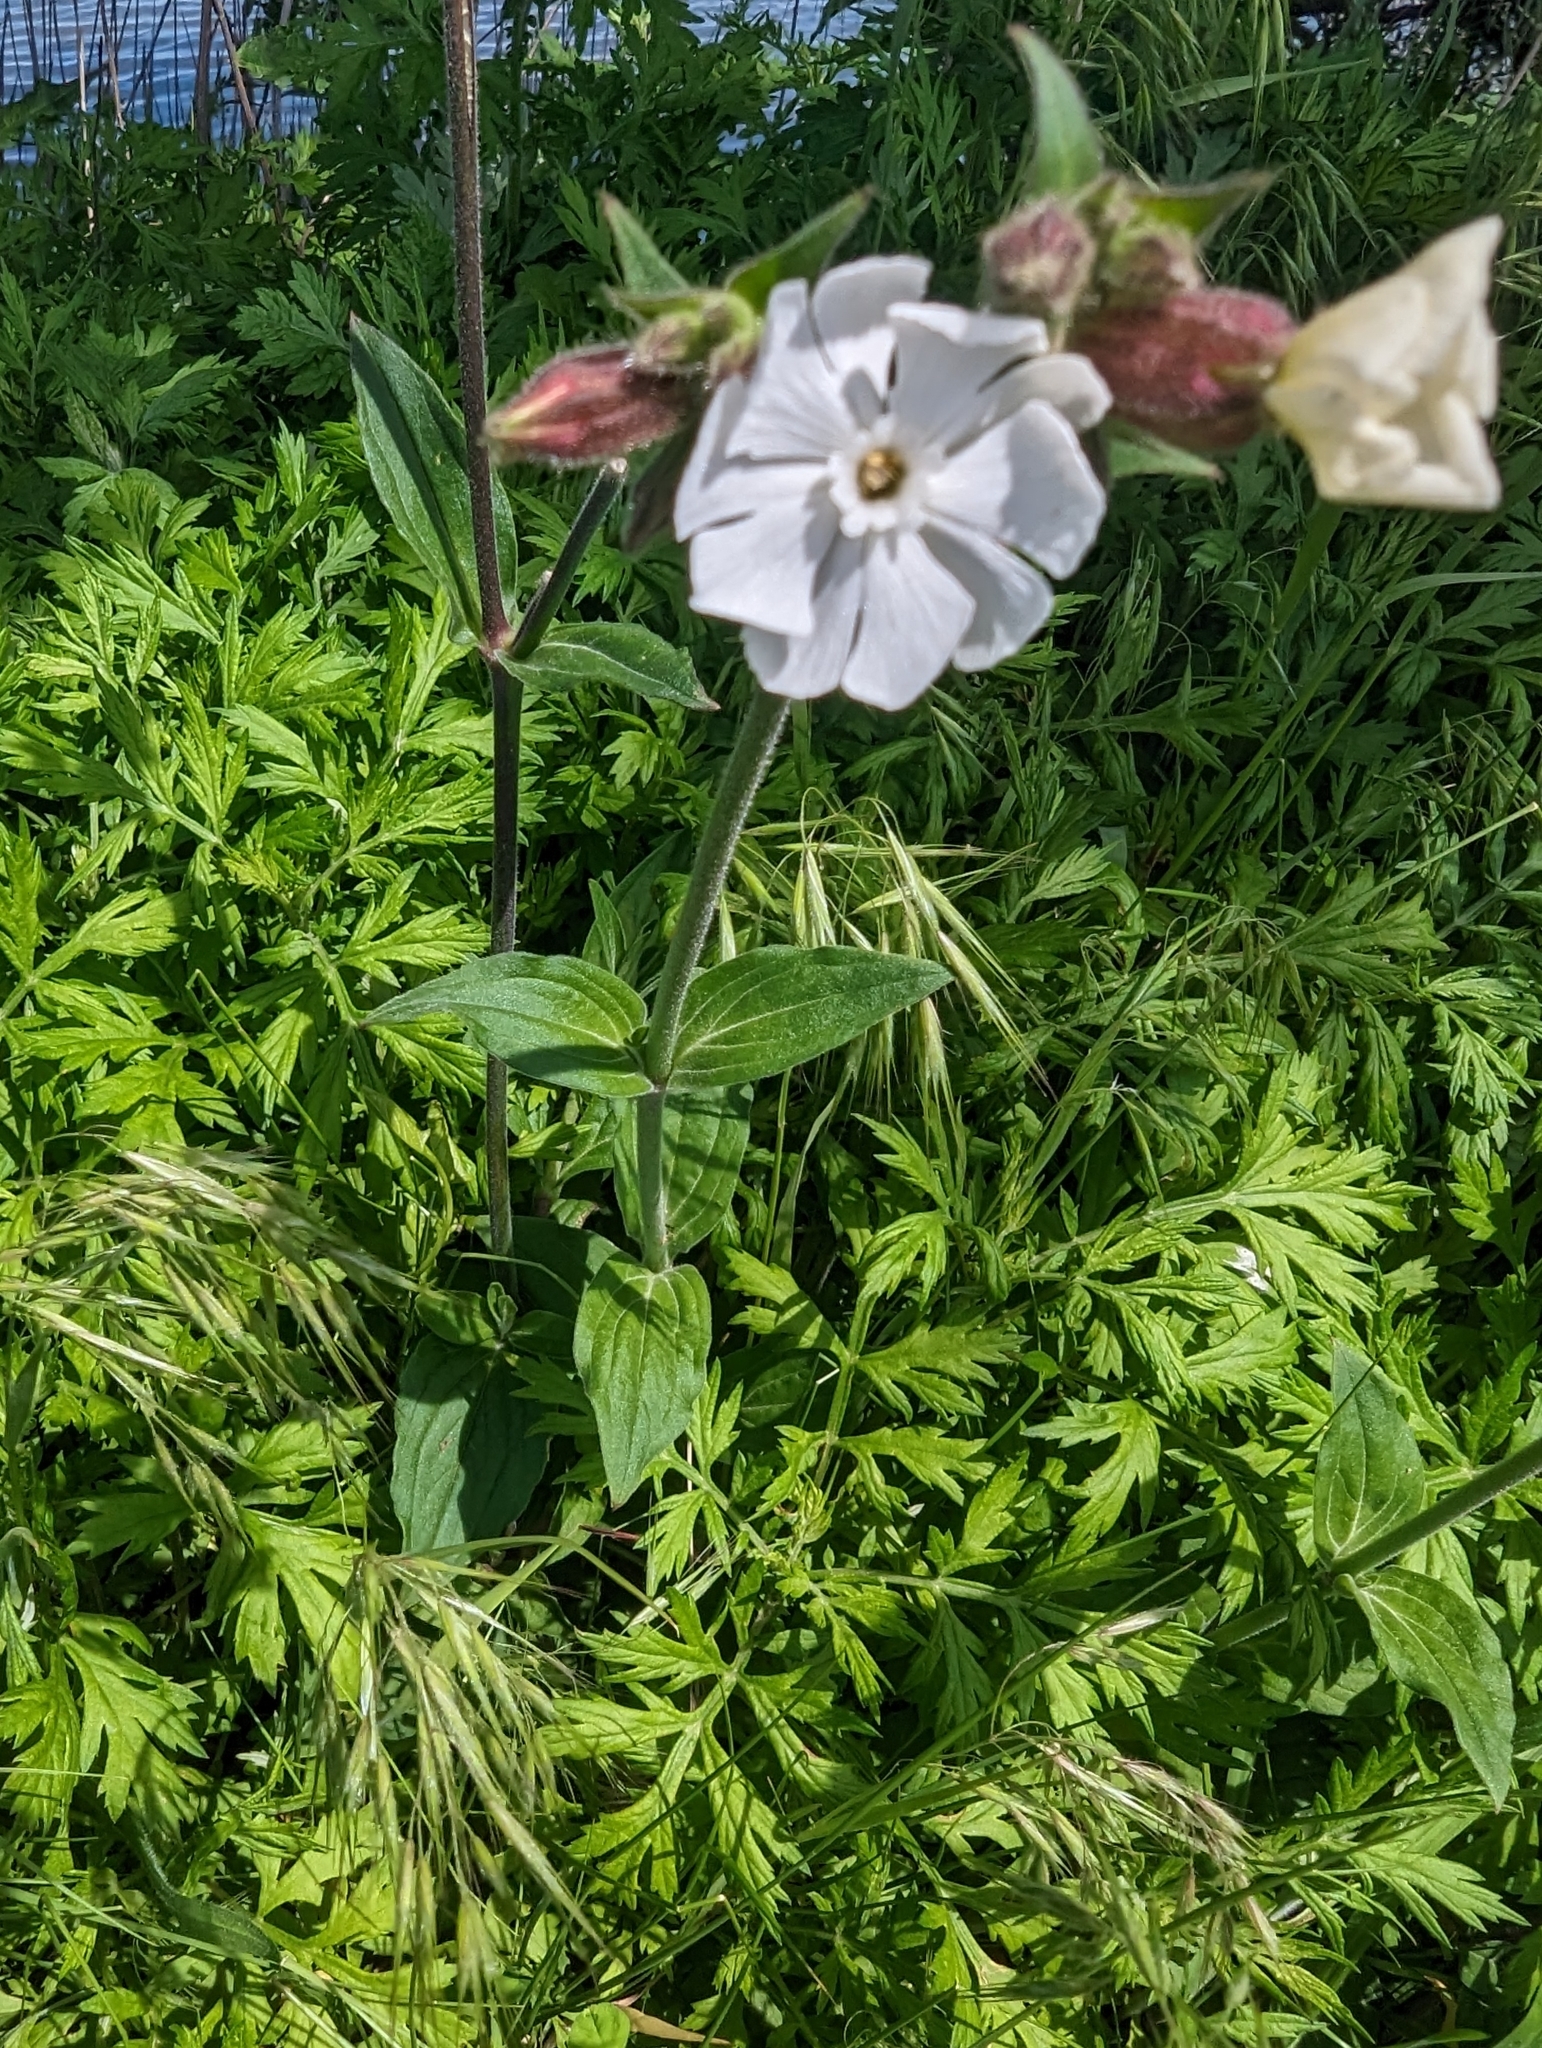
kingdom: Plantae
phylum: Tracheophyta
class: Magnoliopsida
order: Caryophyllales
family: Caryophyllaceae
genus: Silene
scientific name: Silene latifolia
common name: White campion
